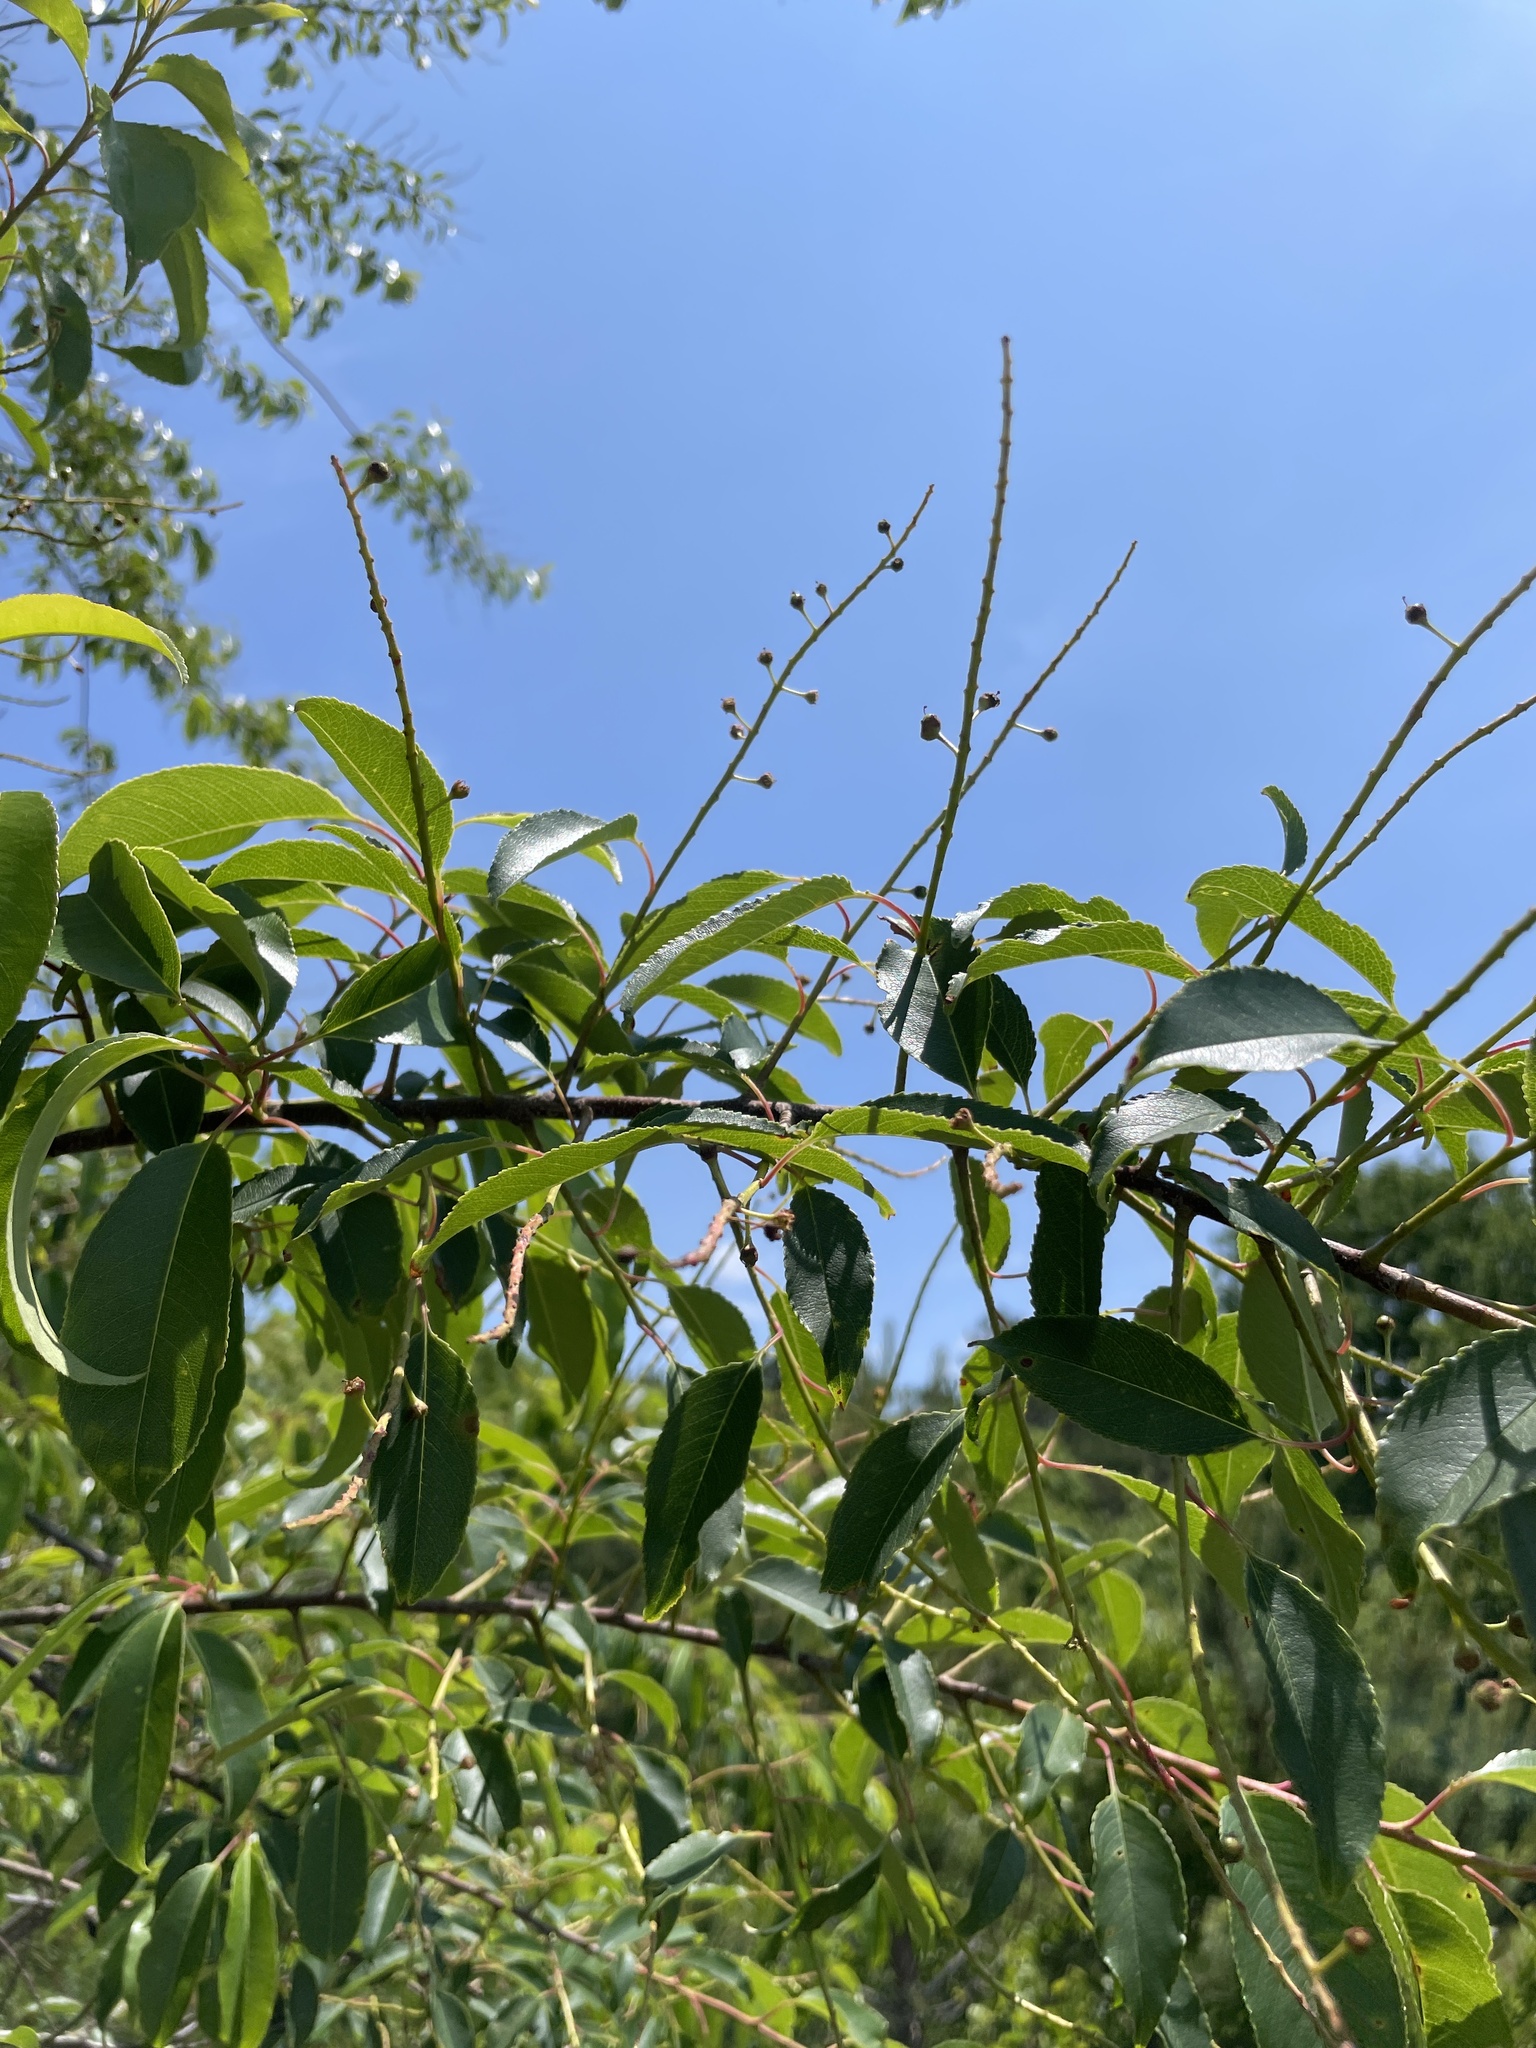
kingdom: Plantae
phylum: Tracheophyta
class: Magnoliopsida
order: Rosales
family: Rosaceae
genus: Prunus
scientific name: Prunus serotina
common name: Black cherry
